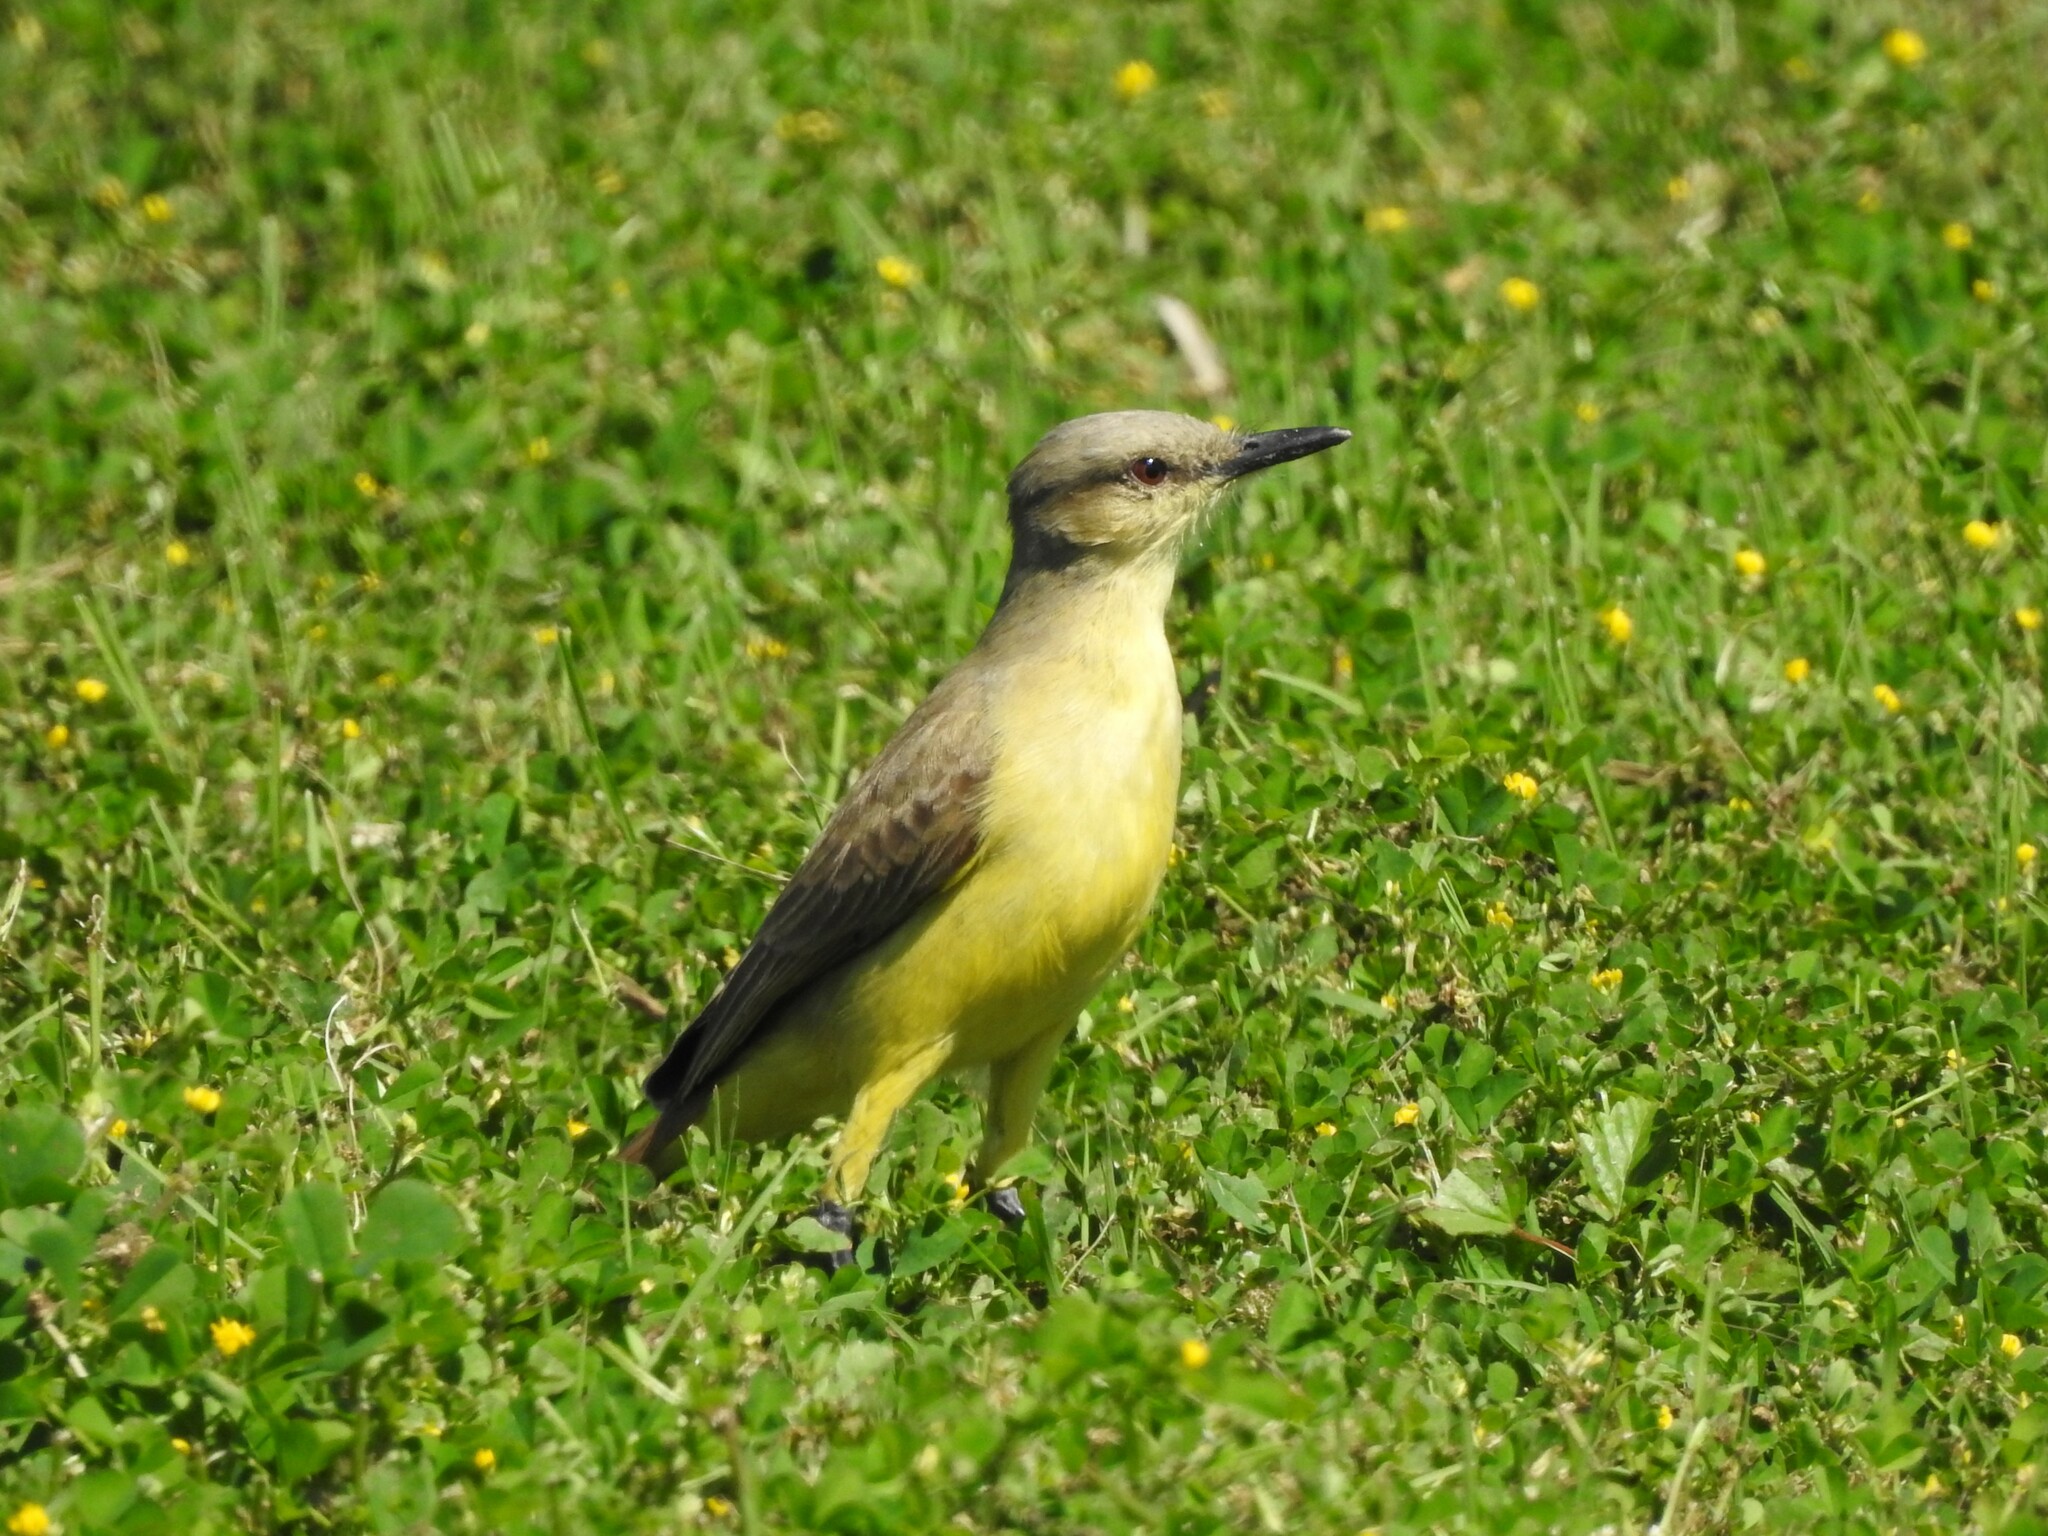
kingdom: Animalia
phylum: Chordata
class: Aves
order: Passeriformes
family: Tyrannidae
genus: Machetornis
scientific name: Machetornis rixosa
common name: Cattle tyrant
